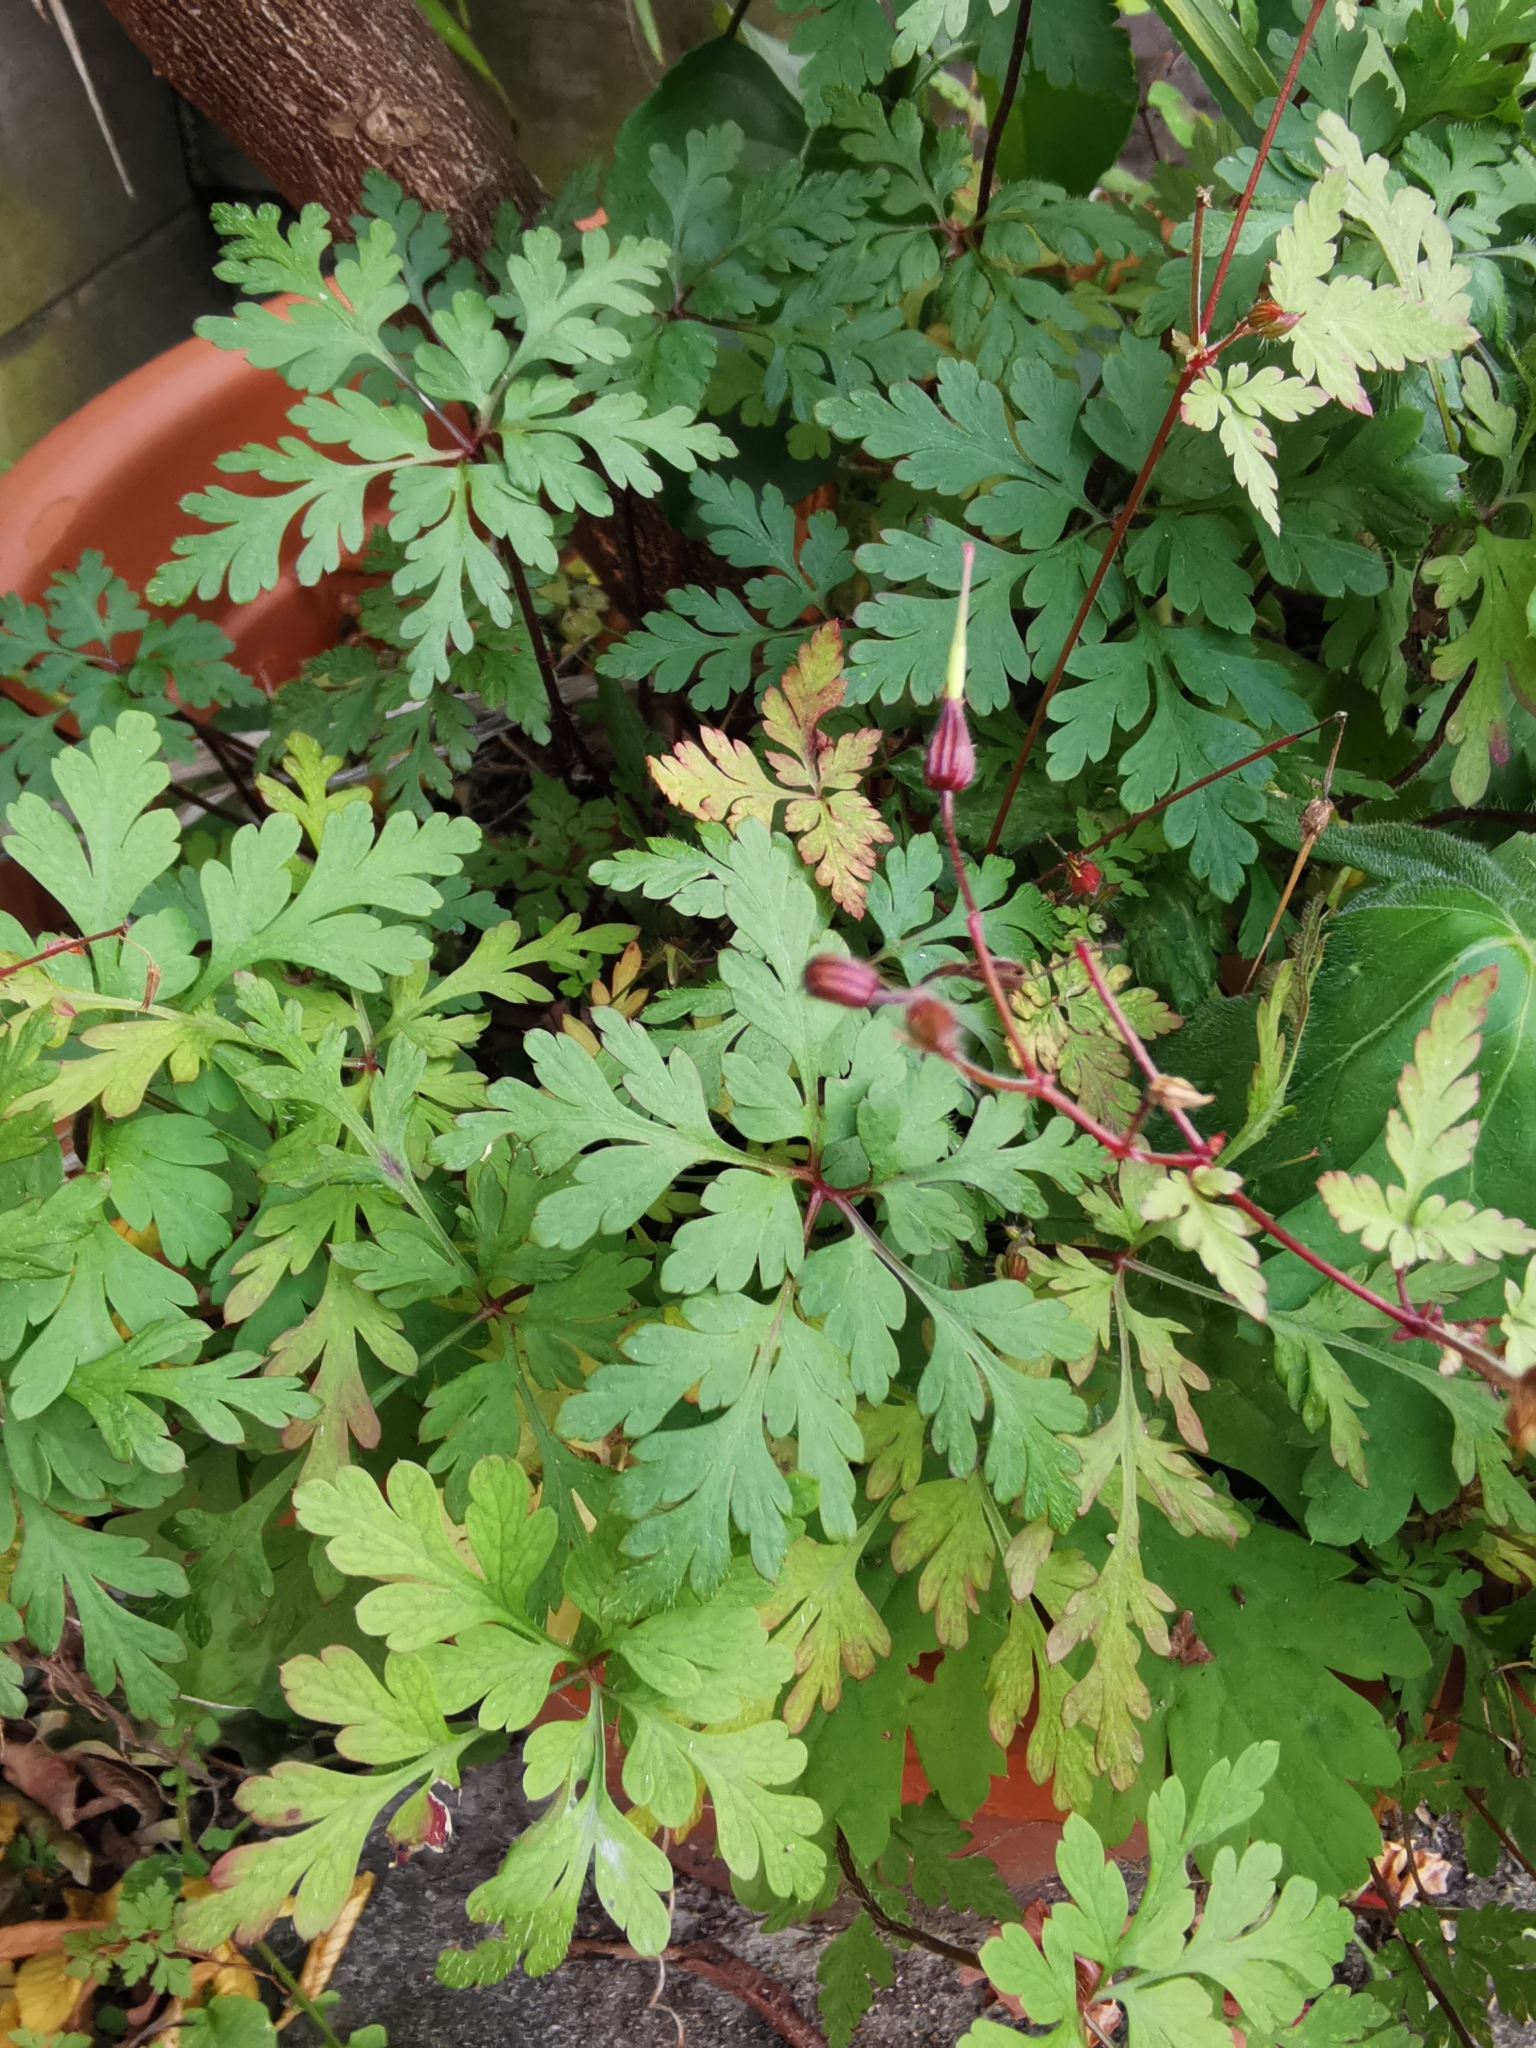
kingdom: Plantae
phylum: Tracheophyta
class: Magnoliopsida
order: Geraniales
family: Geraniaceae
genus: Geranium
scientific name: Geranium robertianum
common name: Herb-robert
